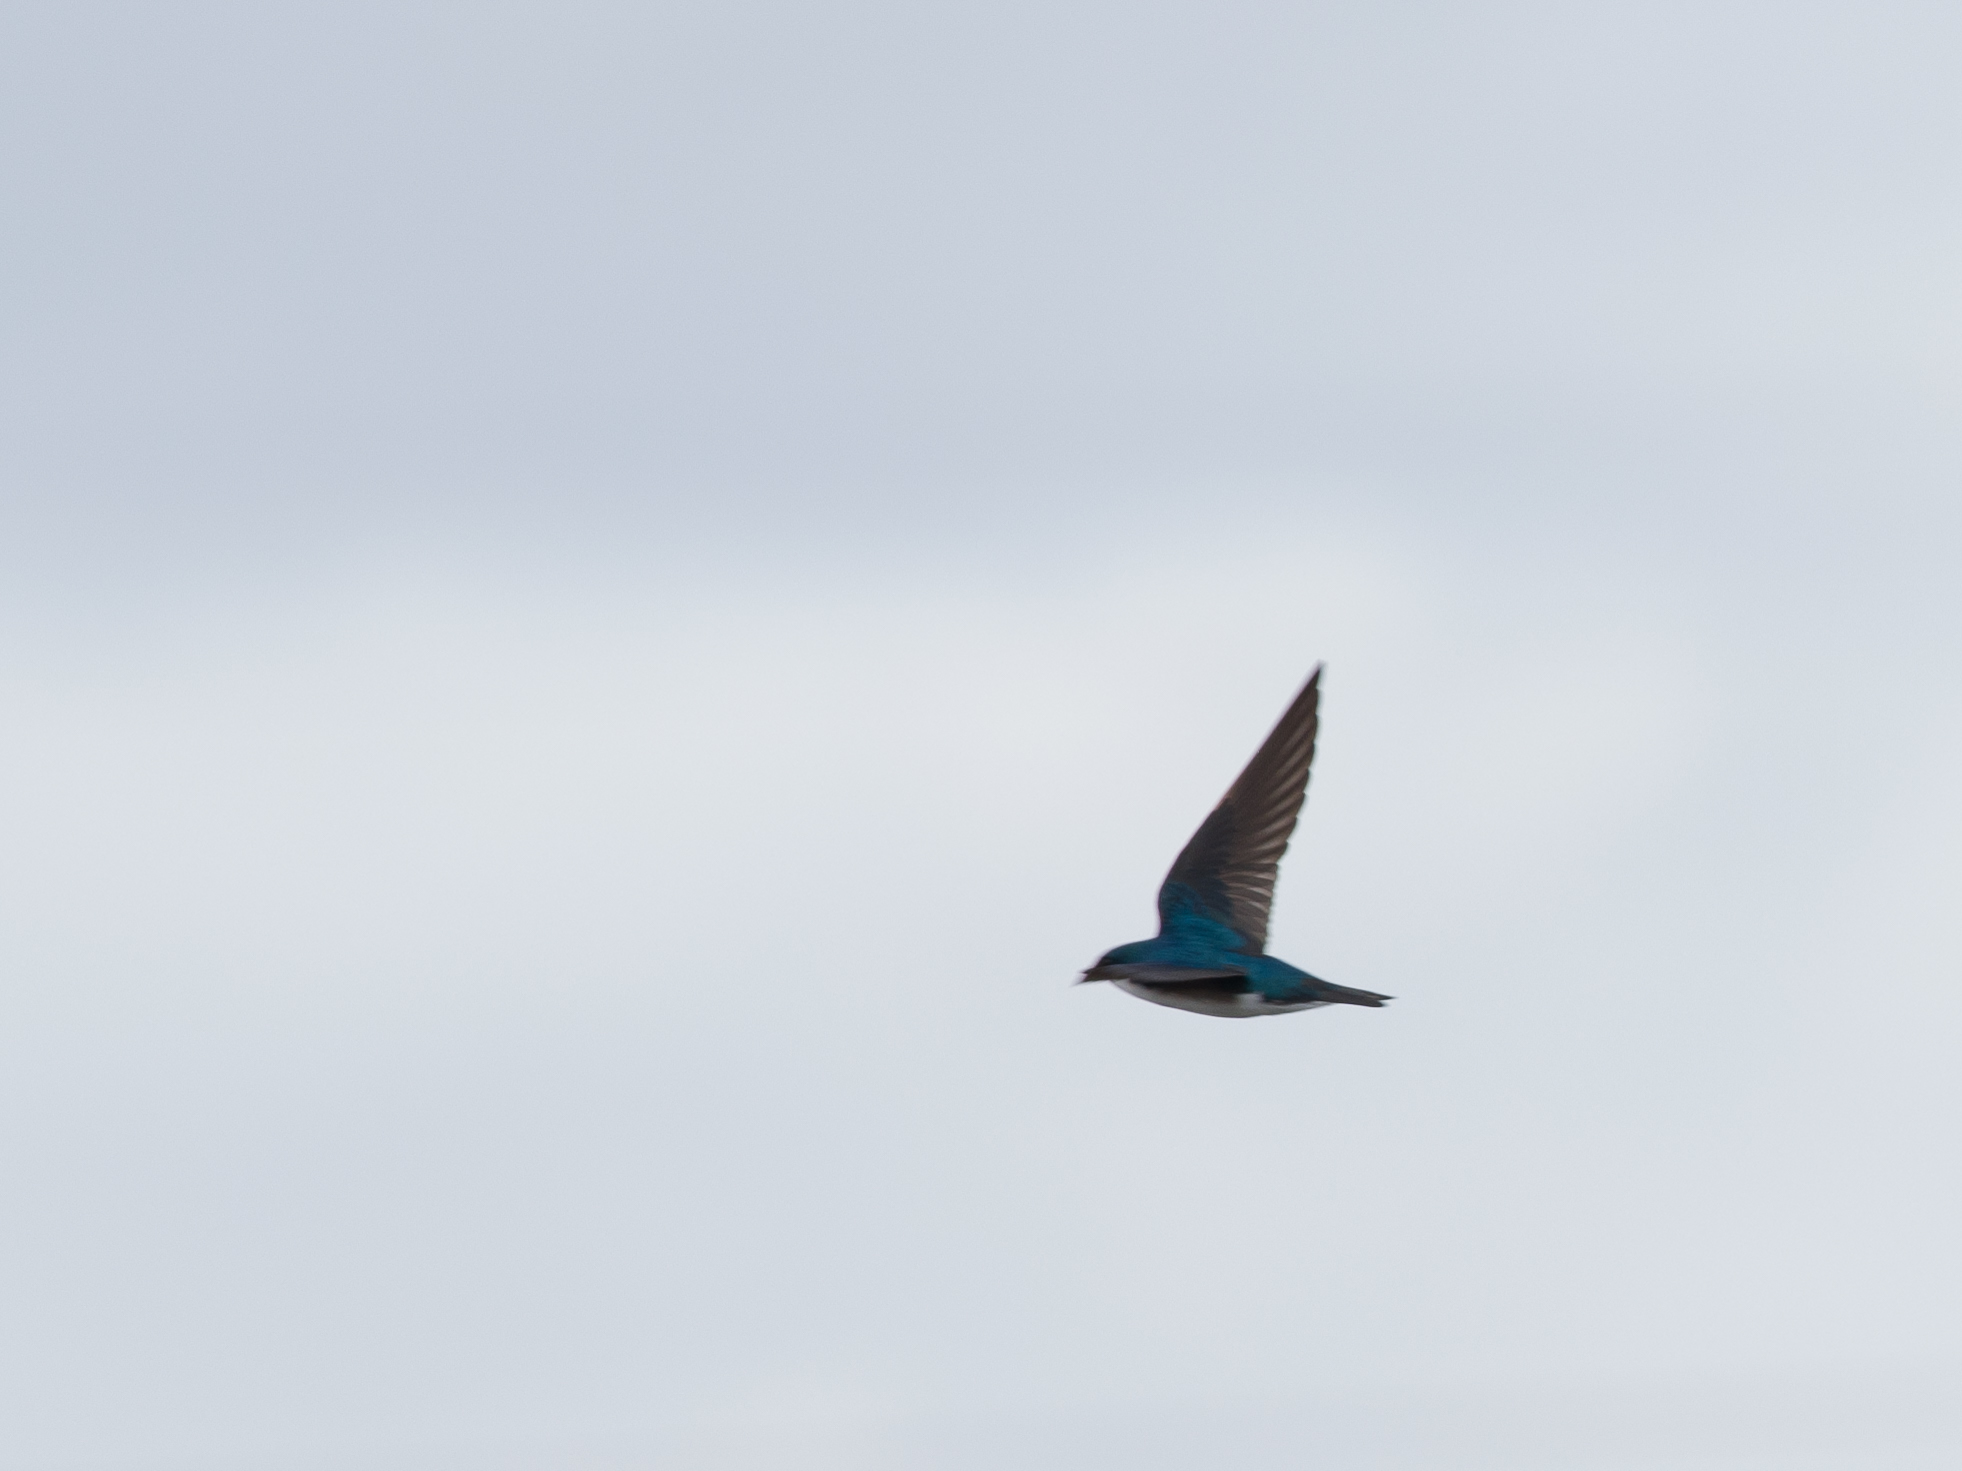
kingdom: Animalia
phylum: Chordata
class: Aves
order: Passeriformes
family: Hirundinidae
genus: Tachycineta
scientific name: Tachycineta bicolor
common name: Tree swallow
